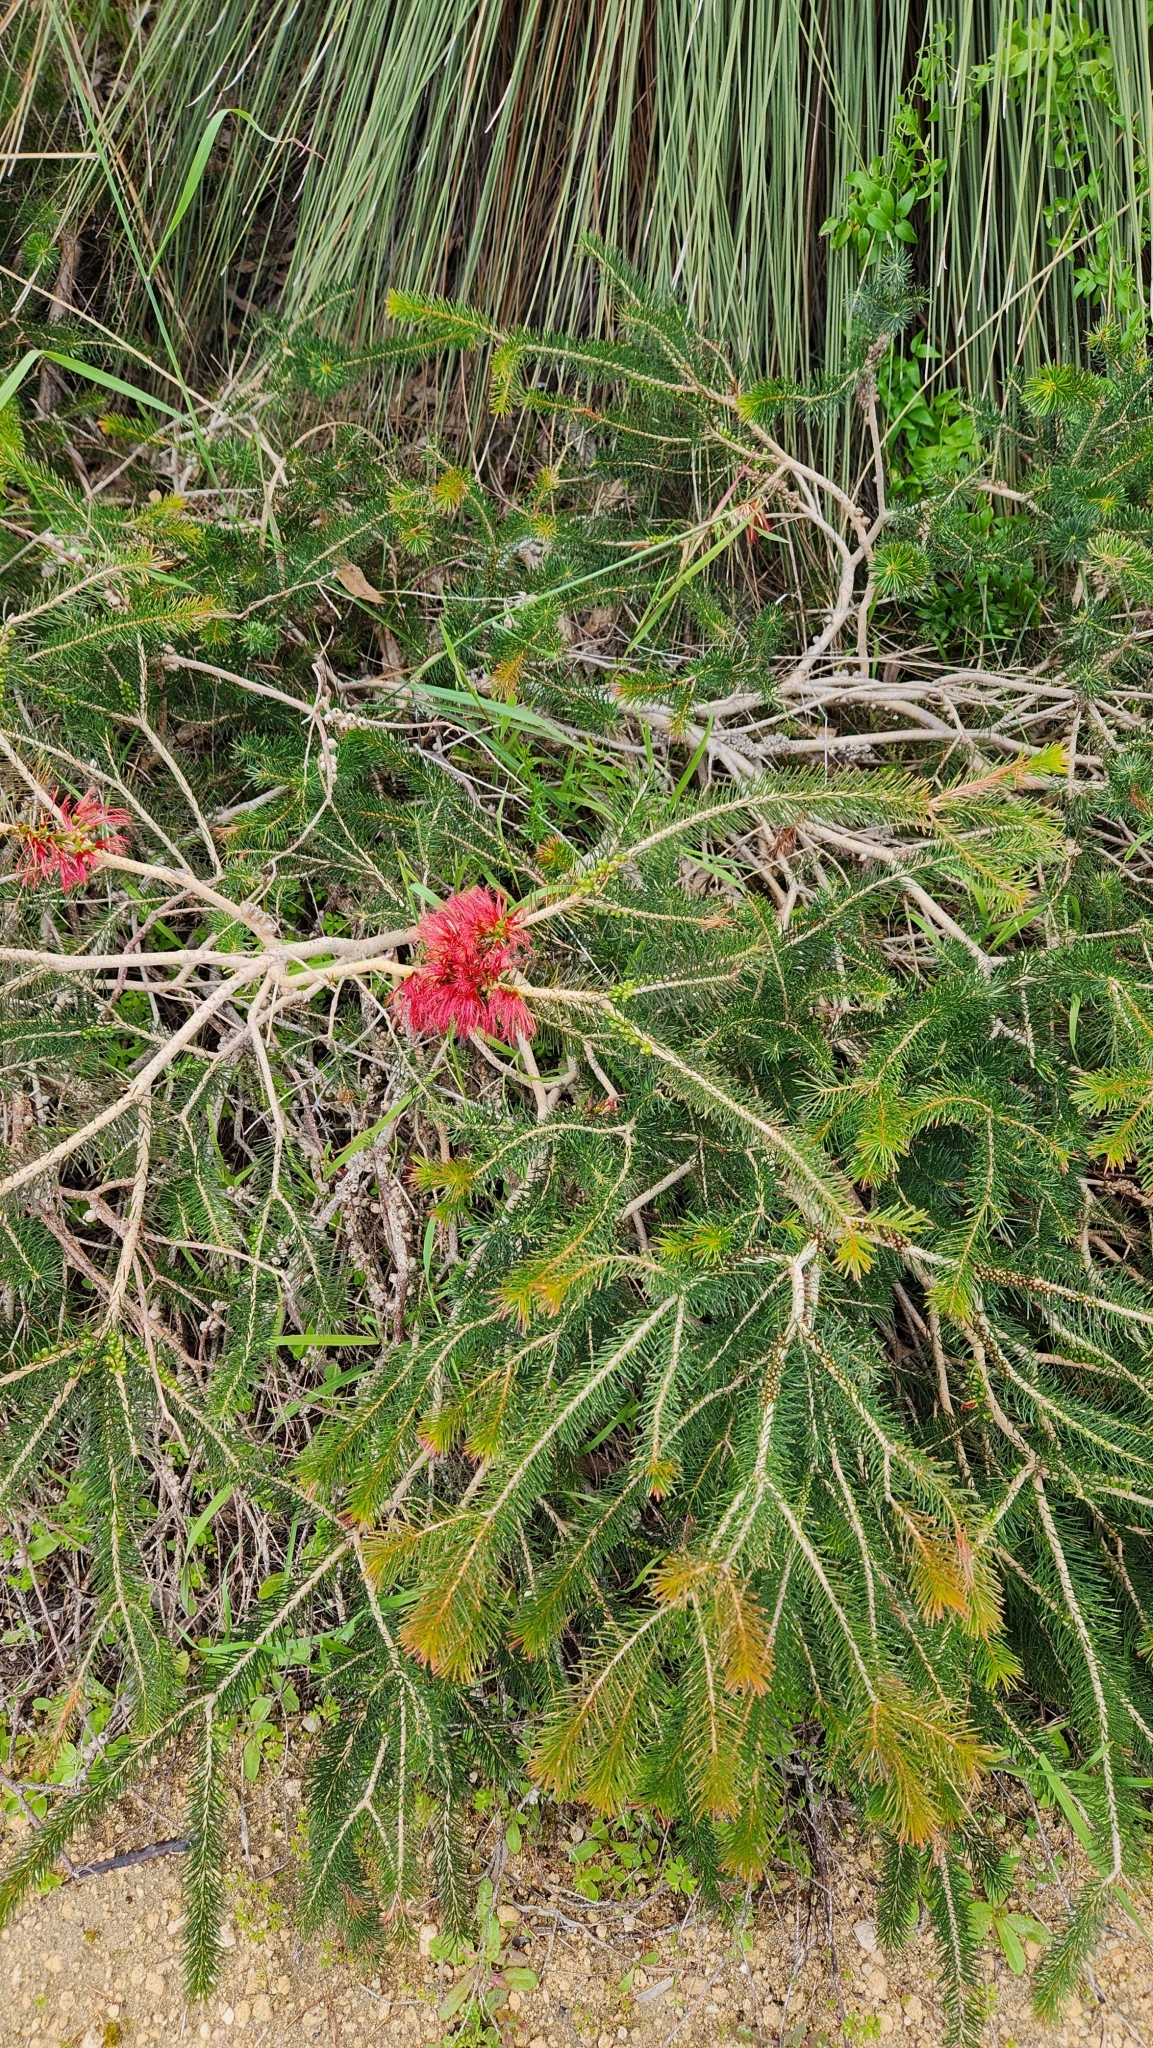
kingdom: Plantae
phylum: Tracheophyta
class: Magnoliopsida
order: Myrtales
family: Myrtaceae
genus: Melaleuca
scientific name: Melaleuca quadrifida
